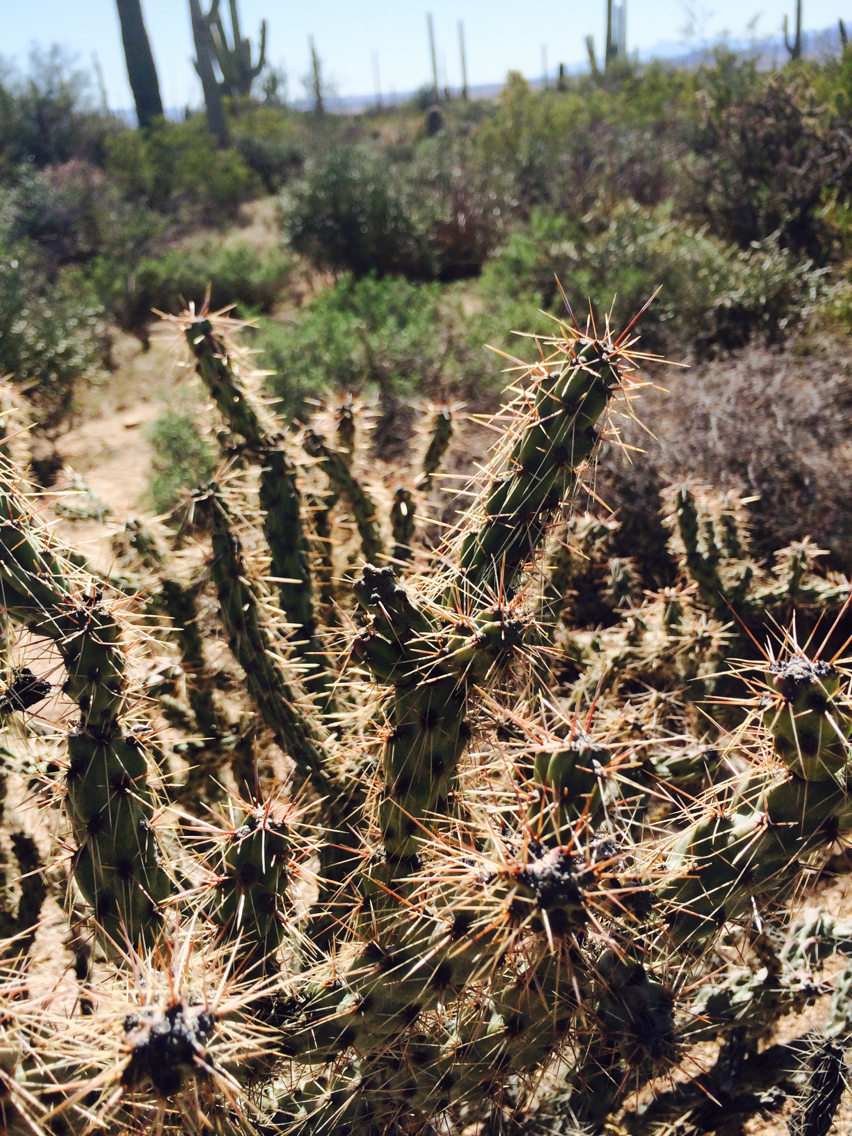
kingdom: Plantae
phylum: Tracheophyta
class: Magnoliopsida
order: Caryophyllales
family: Cactaceae
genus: Cylindropuntia
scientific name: Cylindropuntia acanthocarpa
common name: Buckhorn cholla
